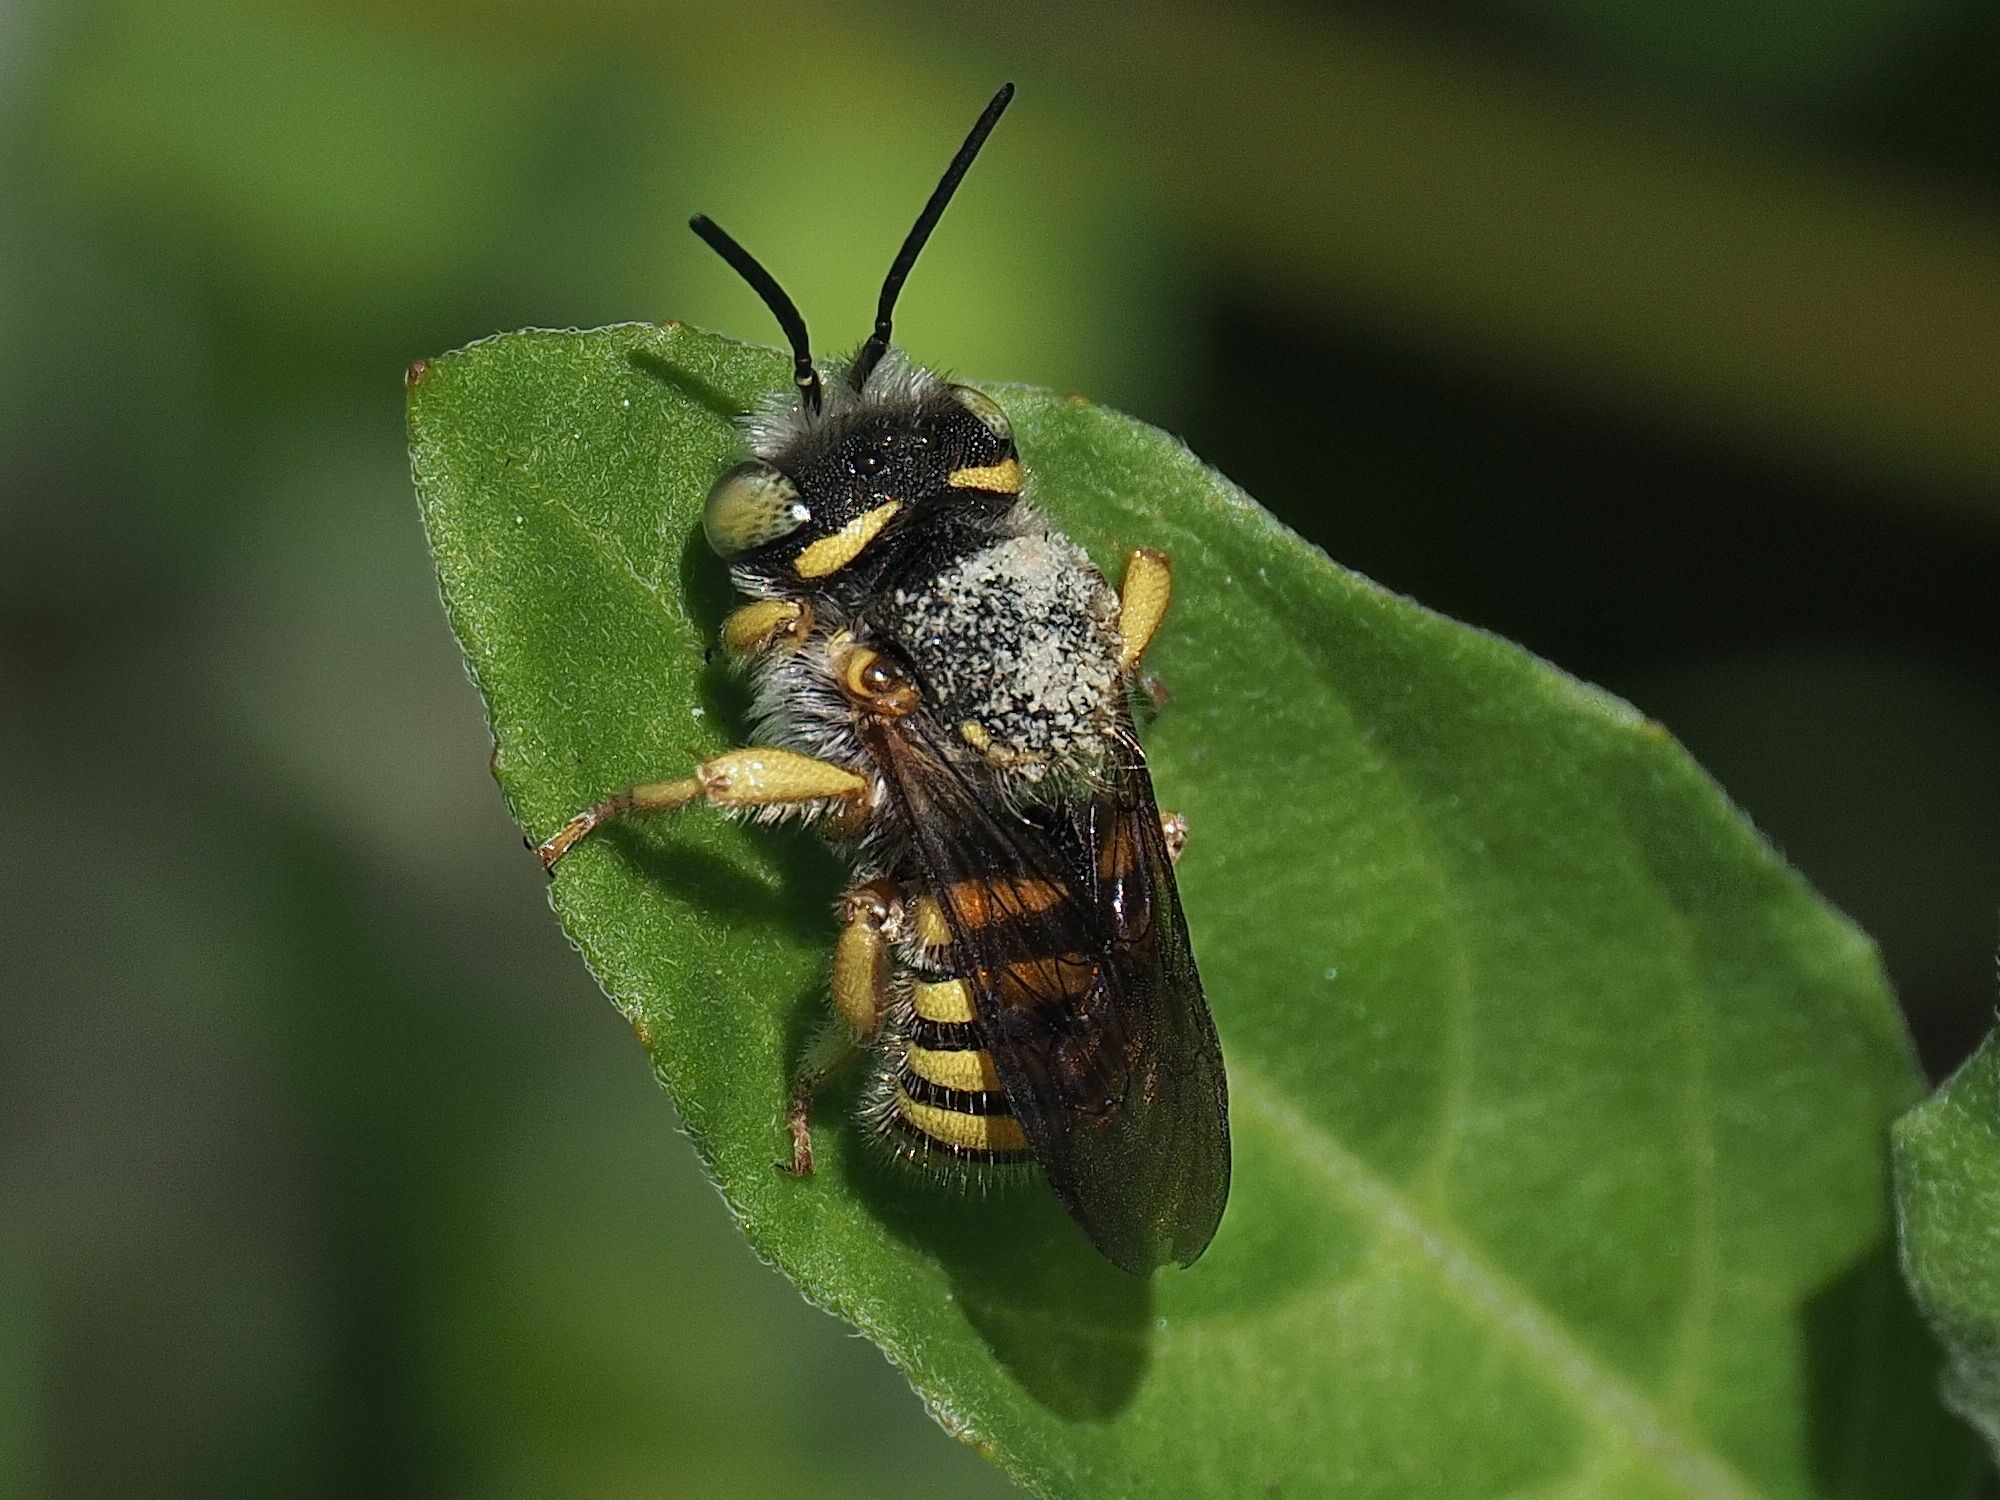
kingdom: Animalia
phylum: Arthropoda
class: Insecta
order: Hymenoptera
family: Megachilidae
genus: Anthidium
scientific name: Anthidium oblongatum
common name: Oblong wool carder bee
